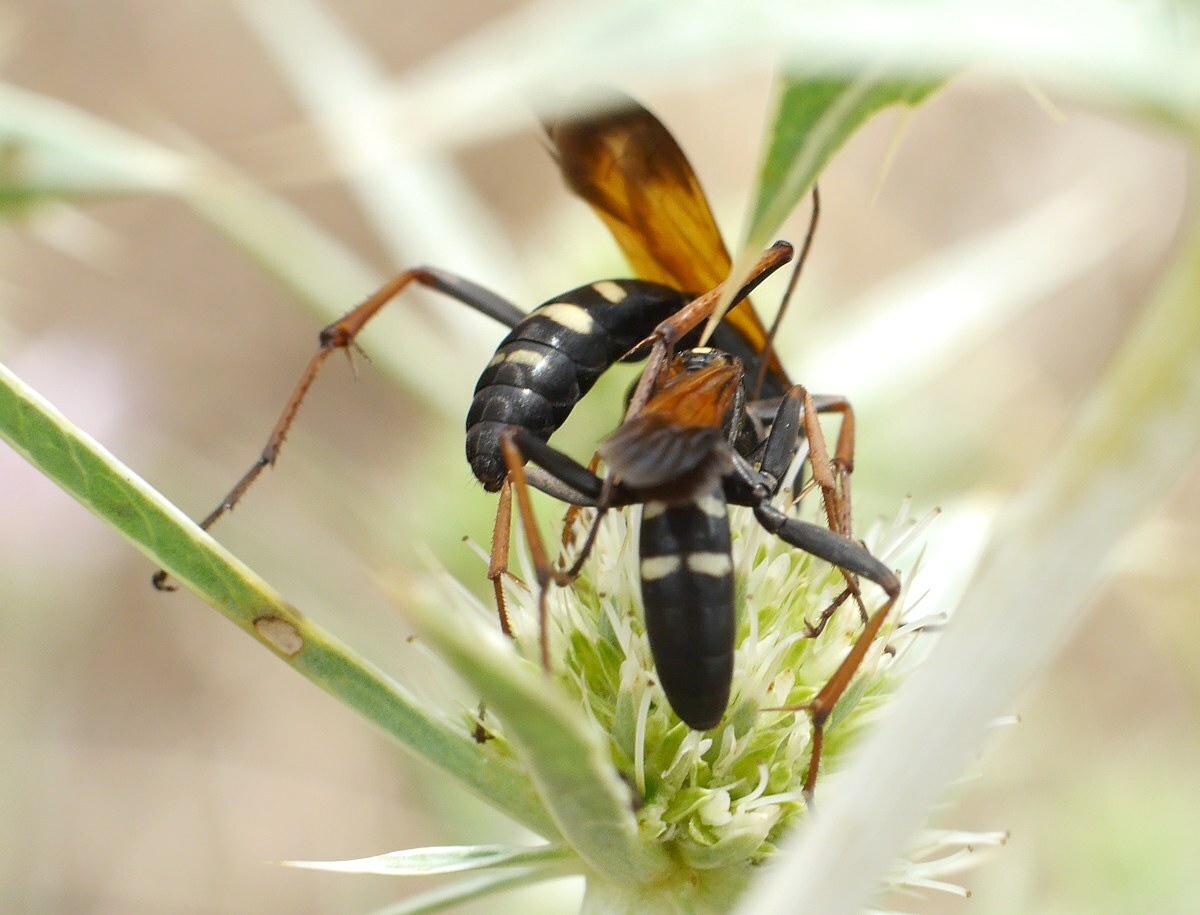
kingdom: Animalia
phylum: Arthropoda
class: Insecta
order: Hymenoptera
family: Pompilidae
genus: Cryptocheilus
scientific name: Cryptocheilus octomaculatus
